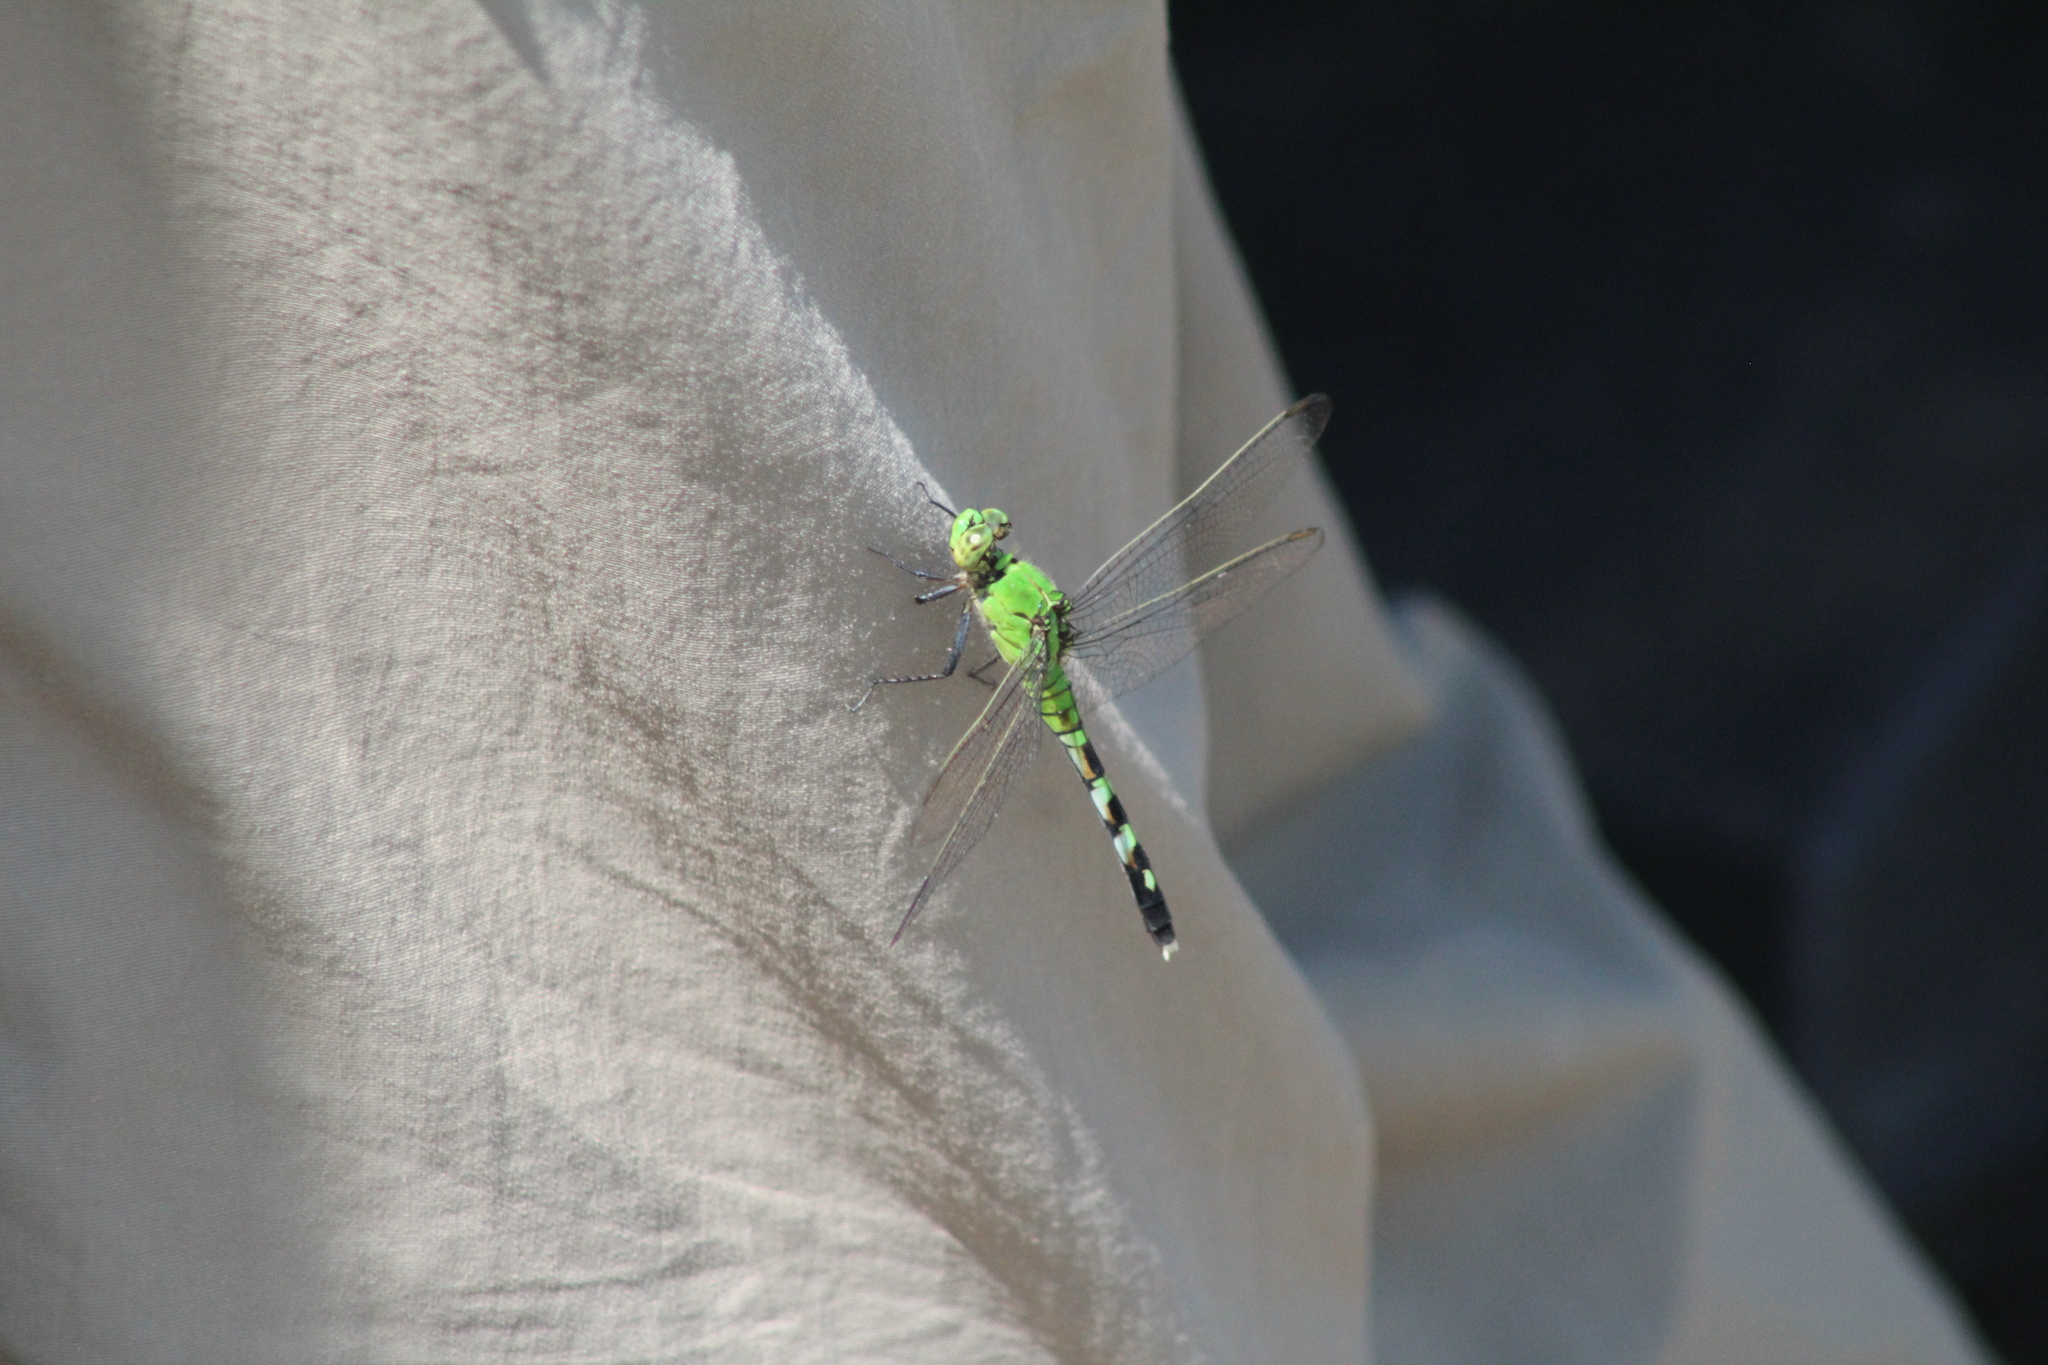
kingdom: Animalia
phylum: Arthropoda
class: Insecta
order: Odonata
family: Libellulidae
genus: Erythemis
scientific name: Erythemis simplicicollis
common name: Eastern pondhawk
